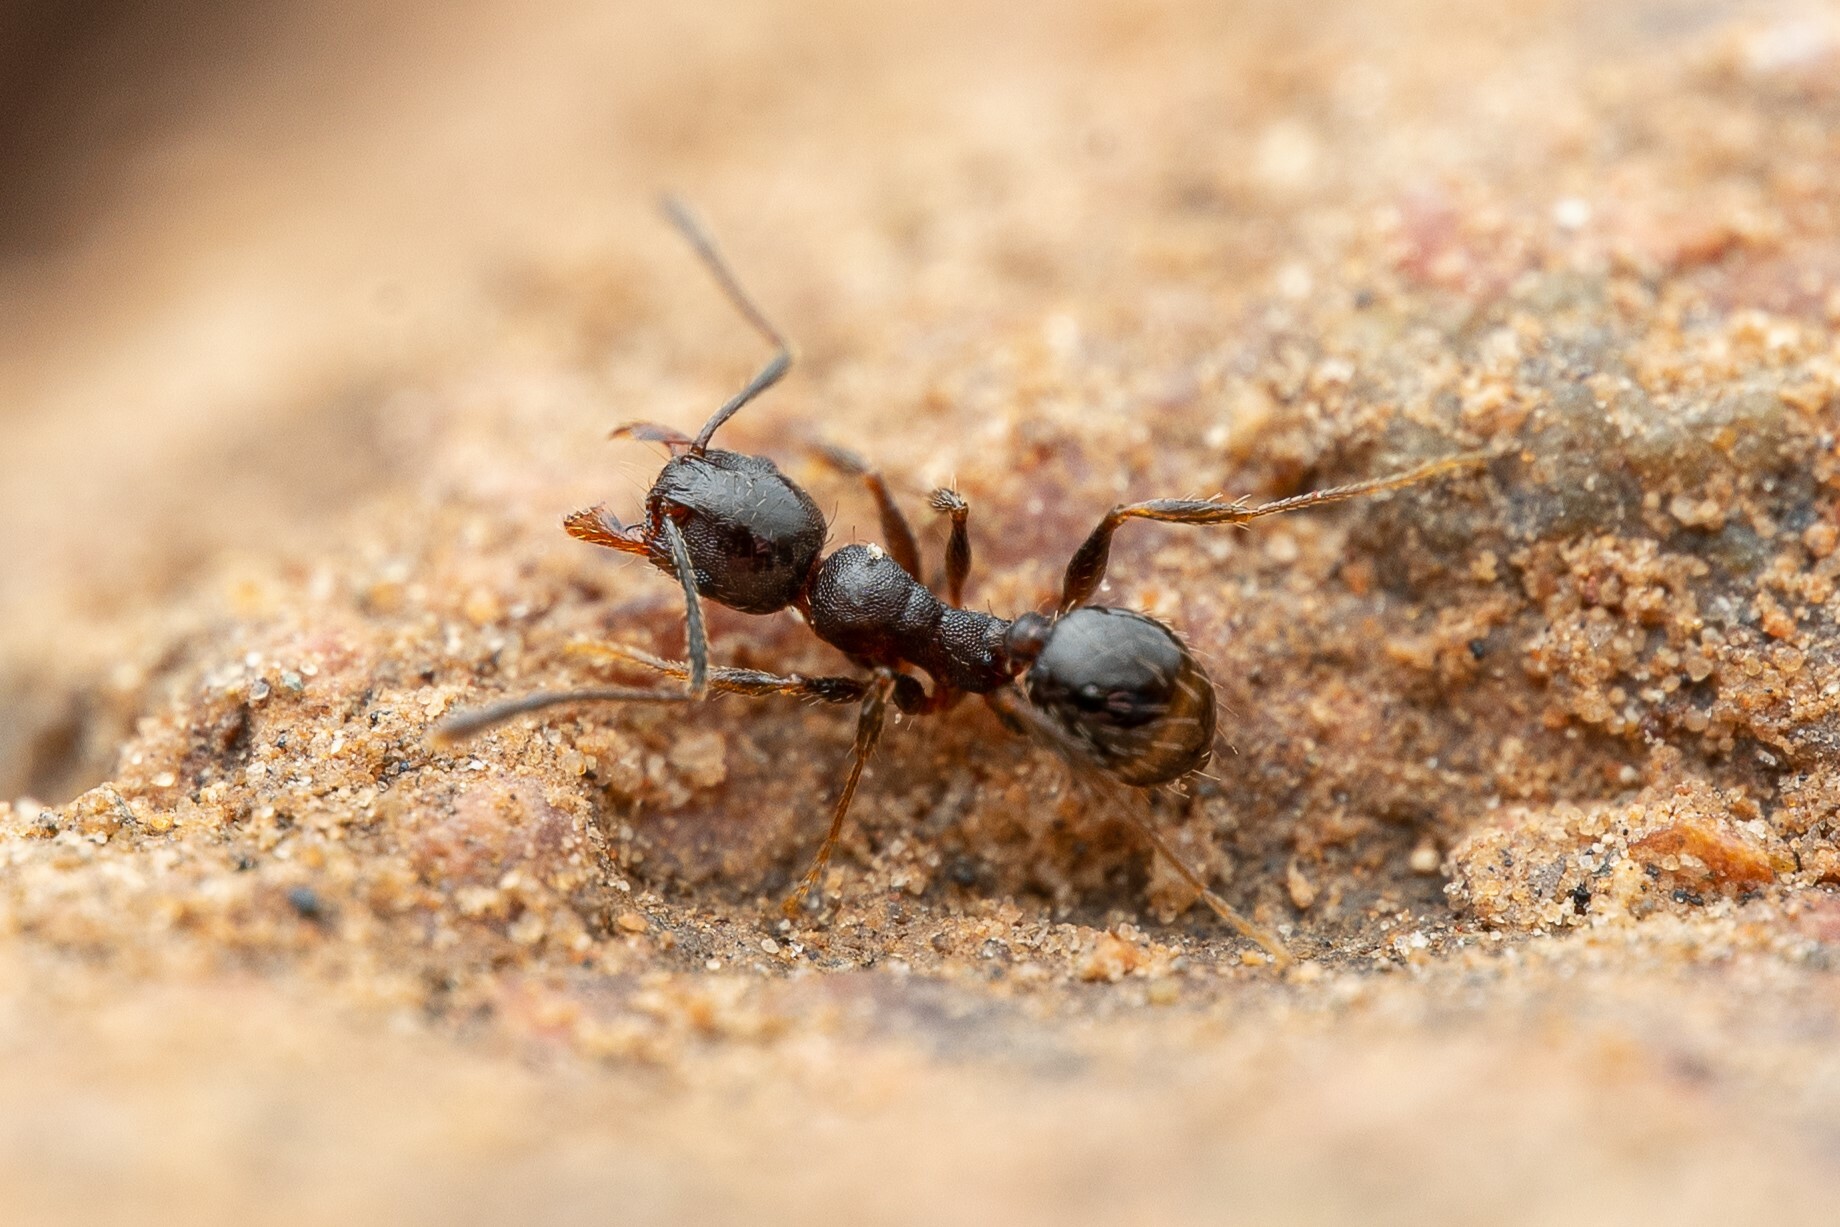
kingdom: Animalia
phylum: Arthropoda
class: Insecta
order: Hymenoptera
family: Formicidae
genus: Pheidole
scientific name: Pheidole sciophila
